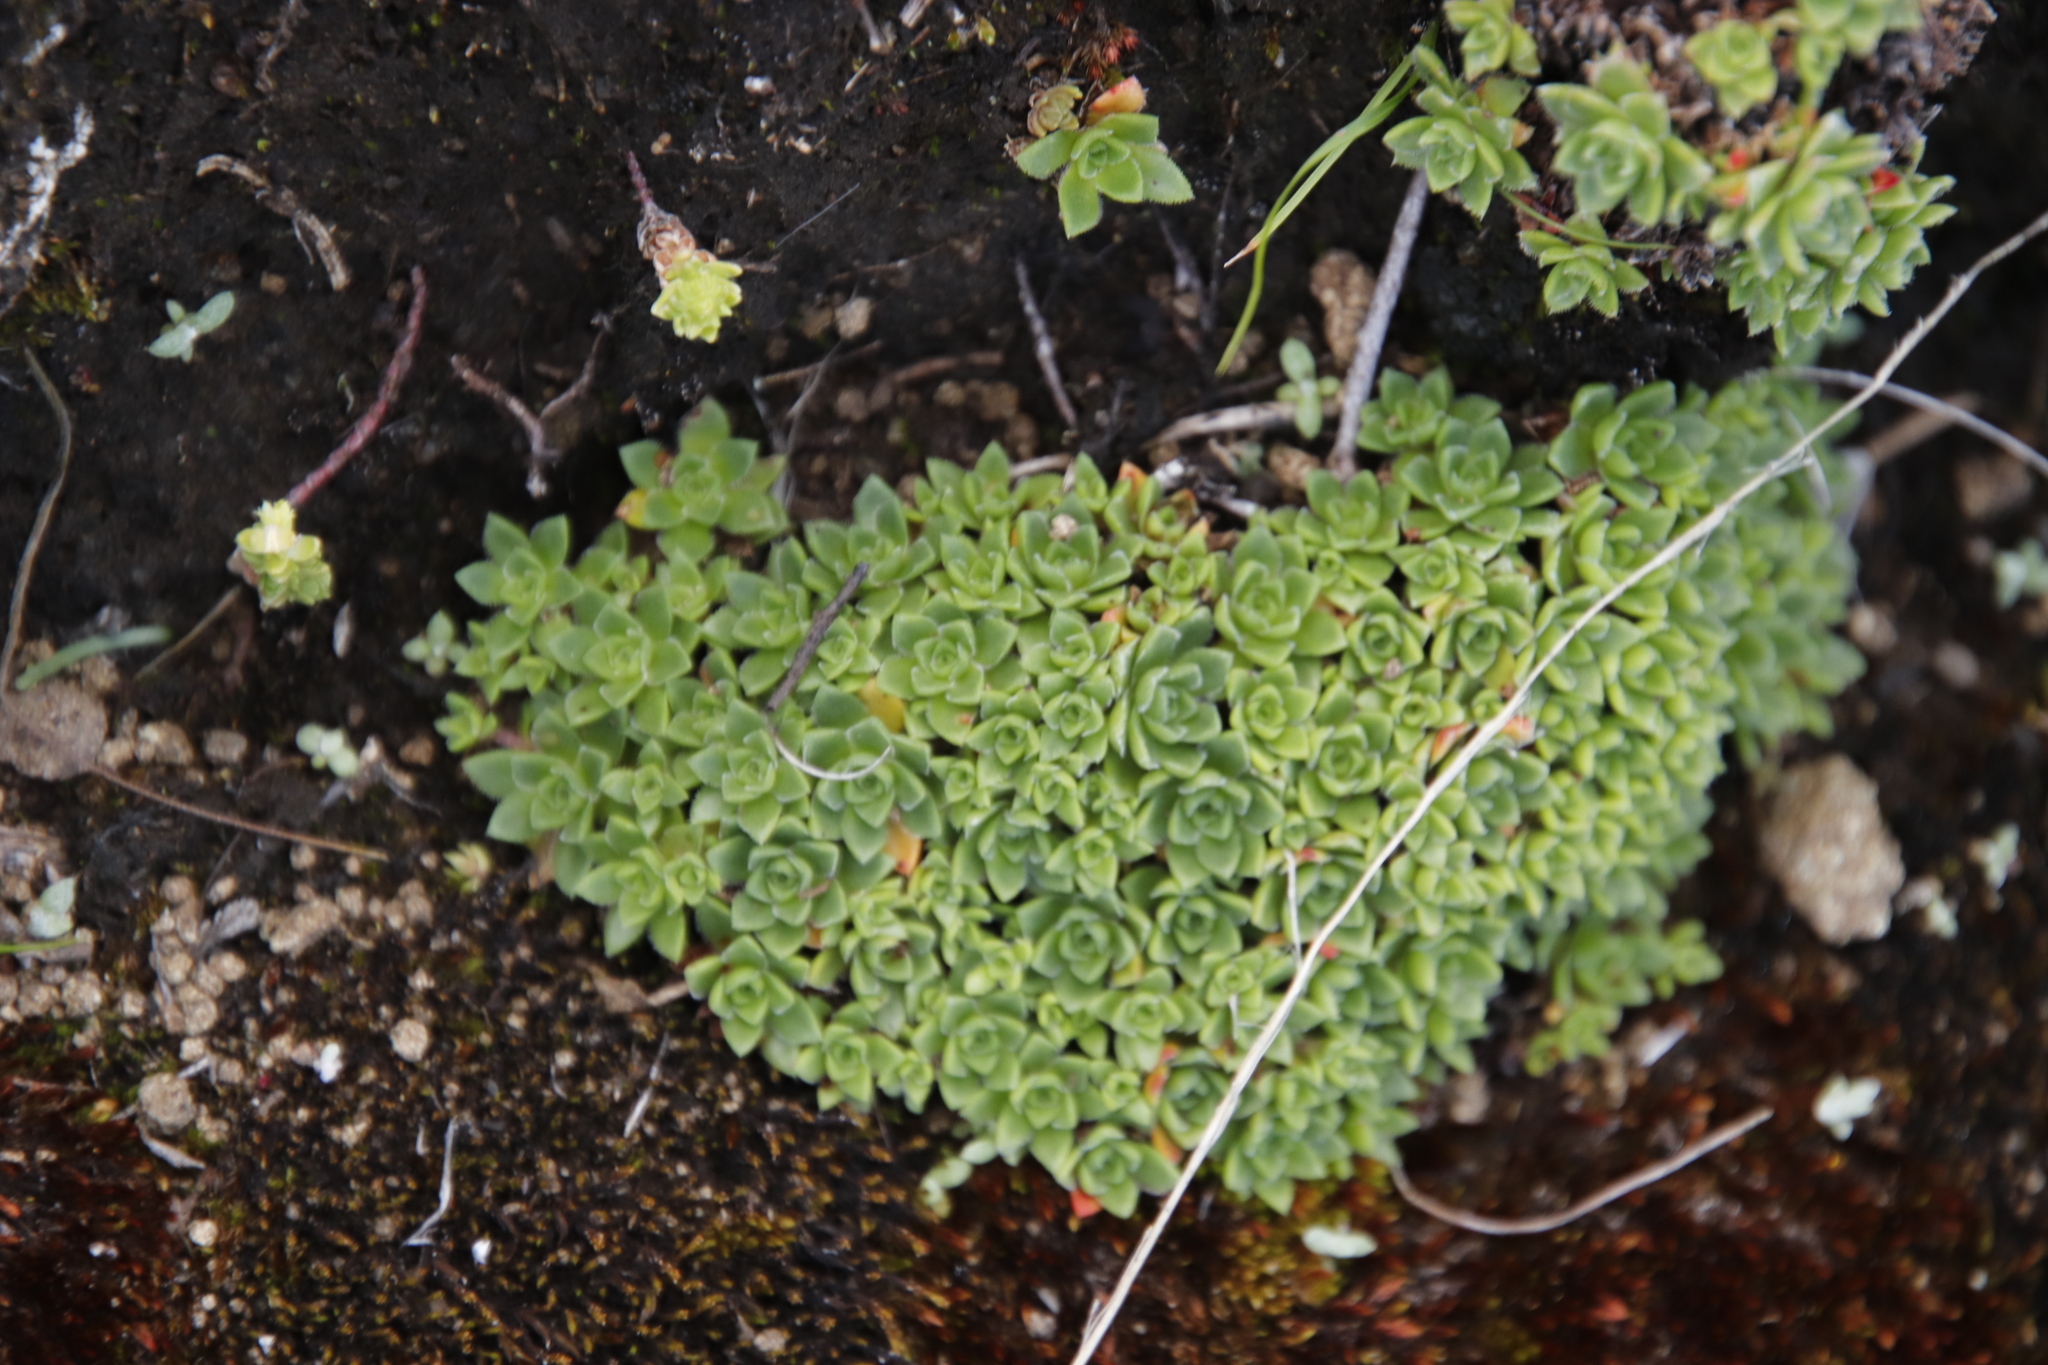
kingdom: Plantae
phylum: Tracheophyta
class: Magnoliopsida
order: Saxifragales
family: Crassulaceae
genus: Crassula
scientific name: Crassula setulosa
